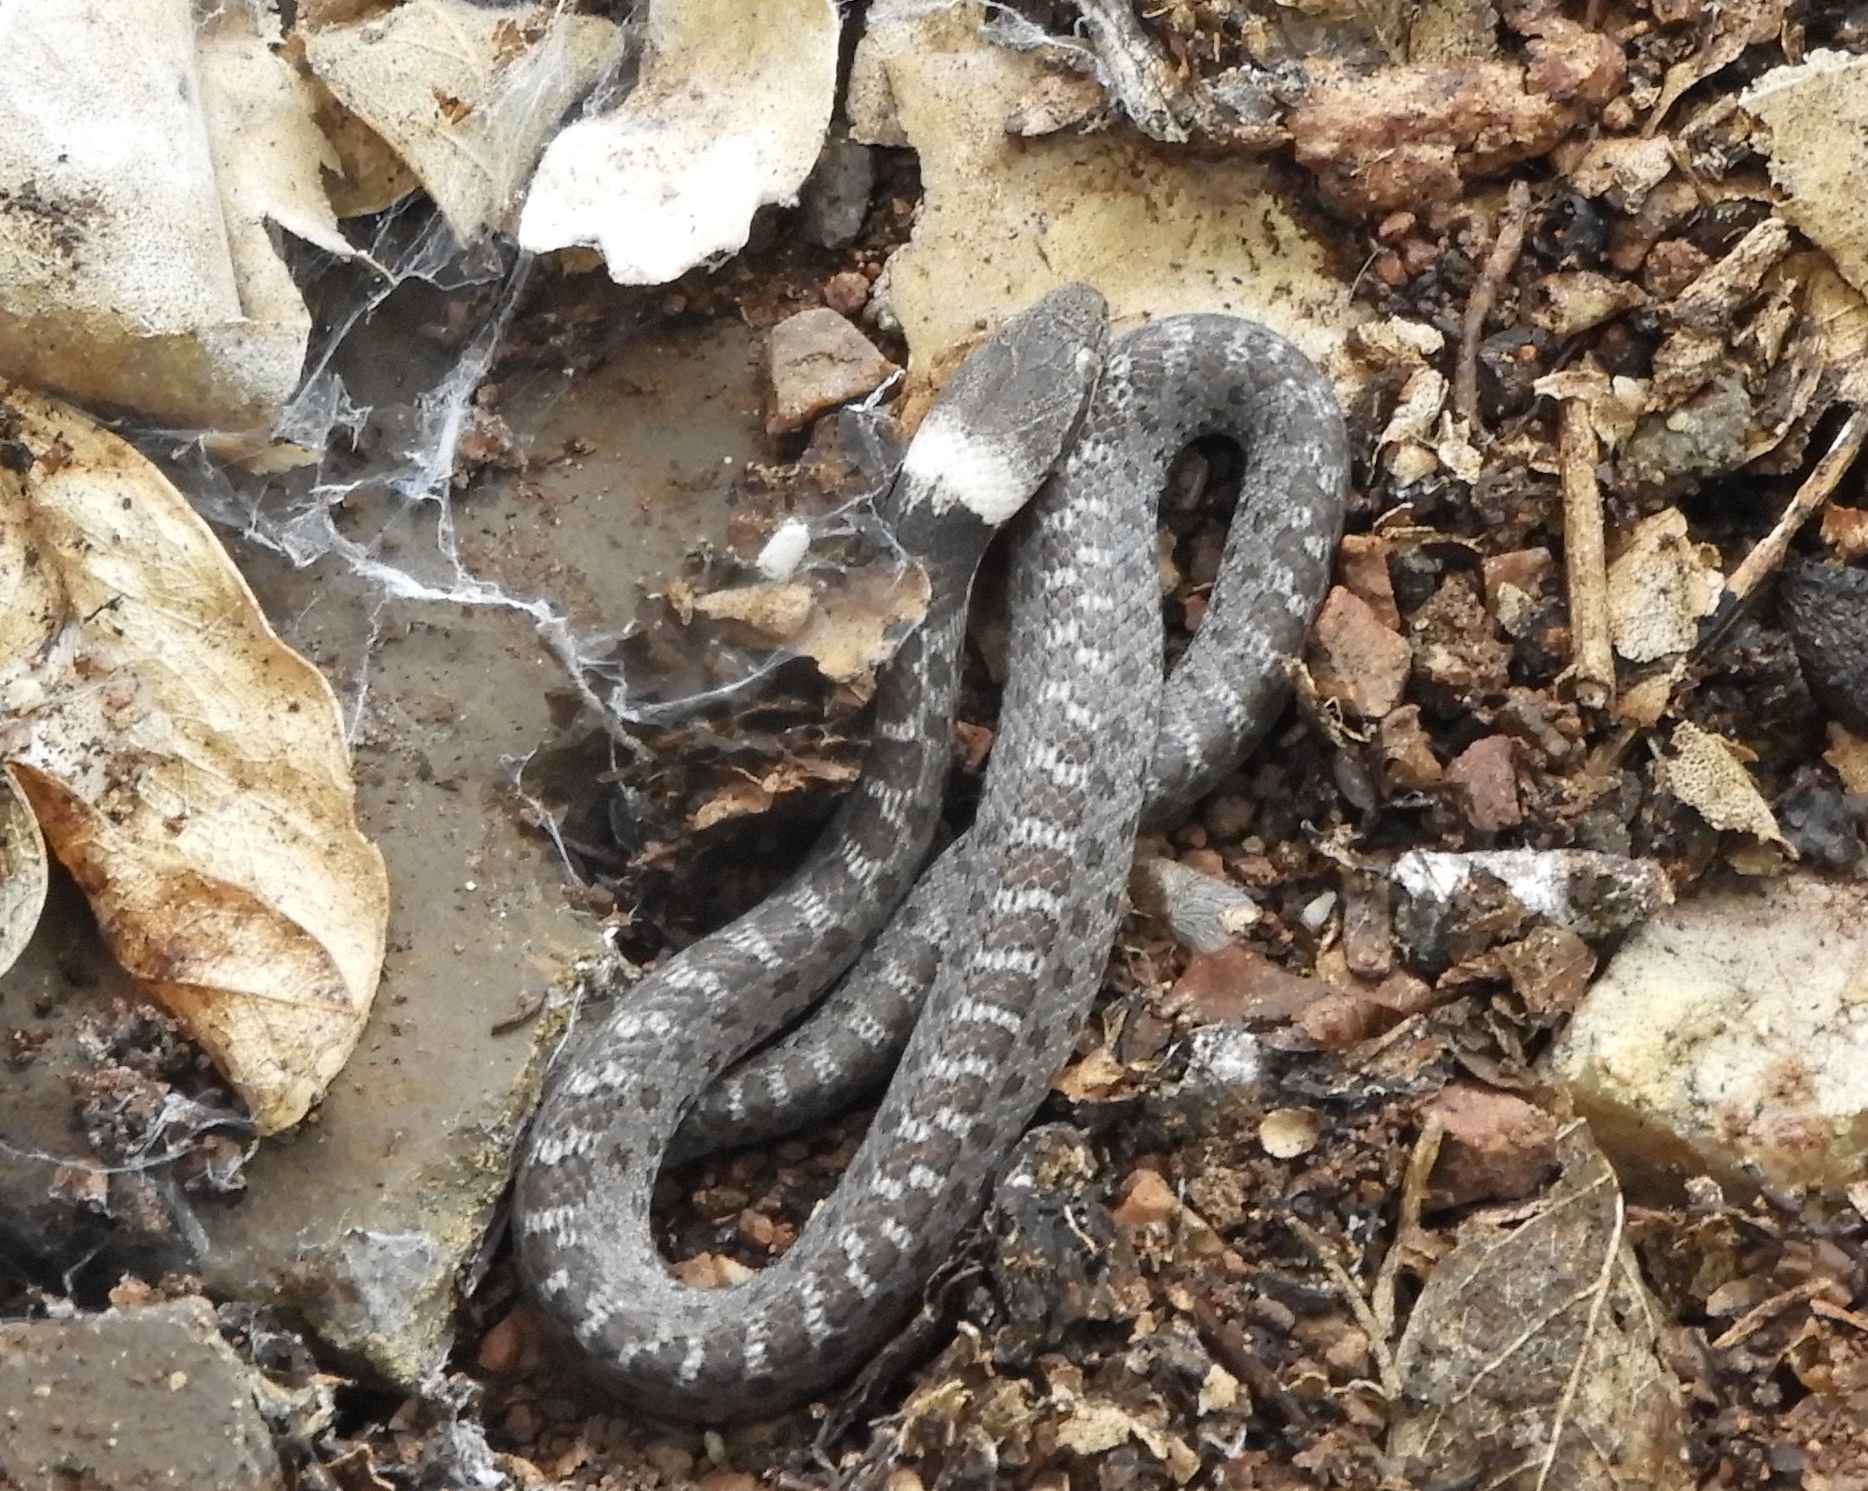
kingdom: Animalia
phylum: Chordata
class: Squamata
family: Colubridae
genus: Hypsiglena
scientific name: Hypsiglena torquata
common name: Night snake
